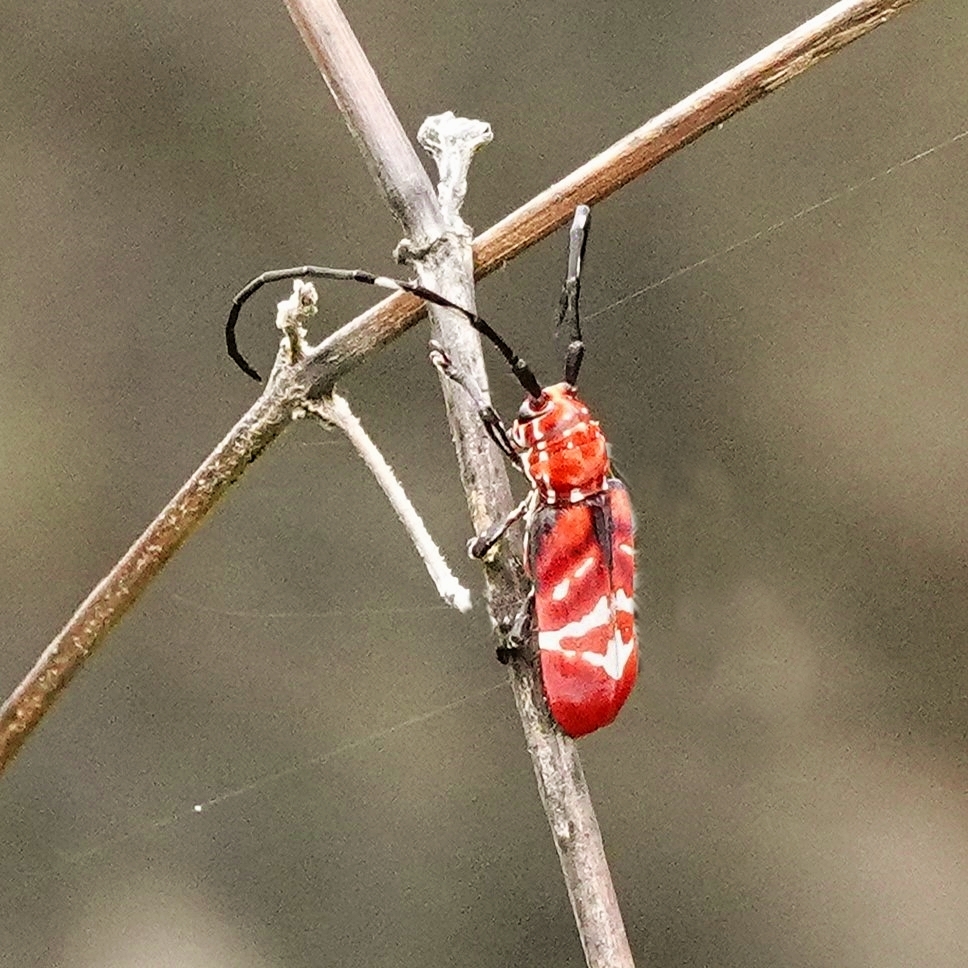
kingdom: Animalia
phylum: Arthropoda
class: Insecta
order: Coleoptera
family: Cerambycidae
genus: Callimation
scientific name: Callimation venustum
